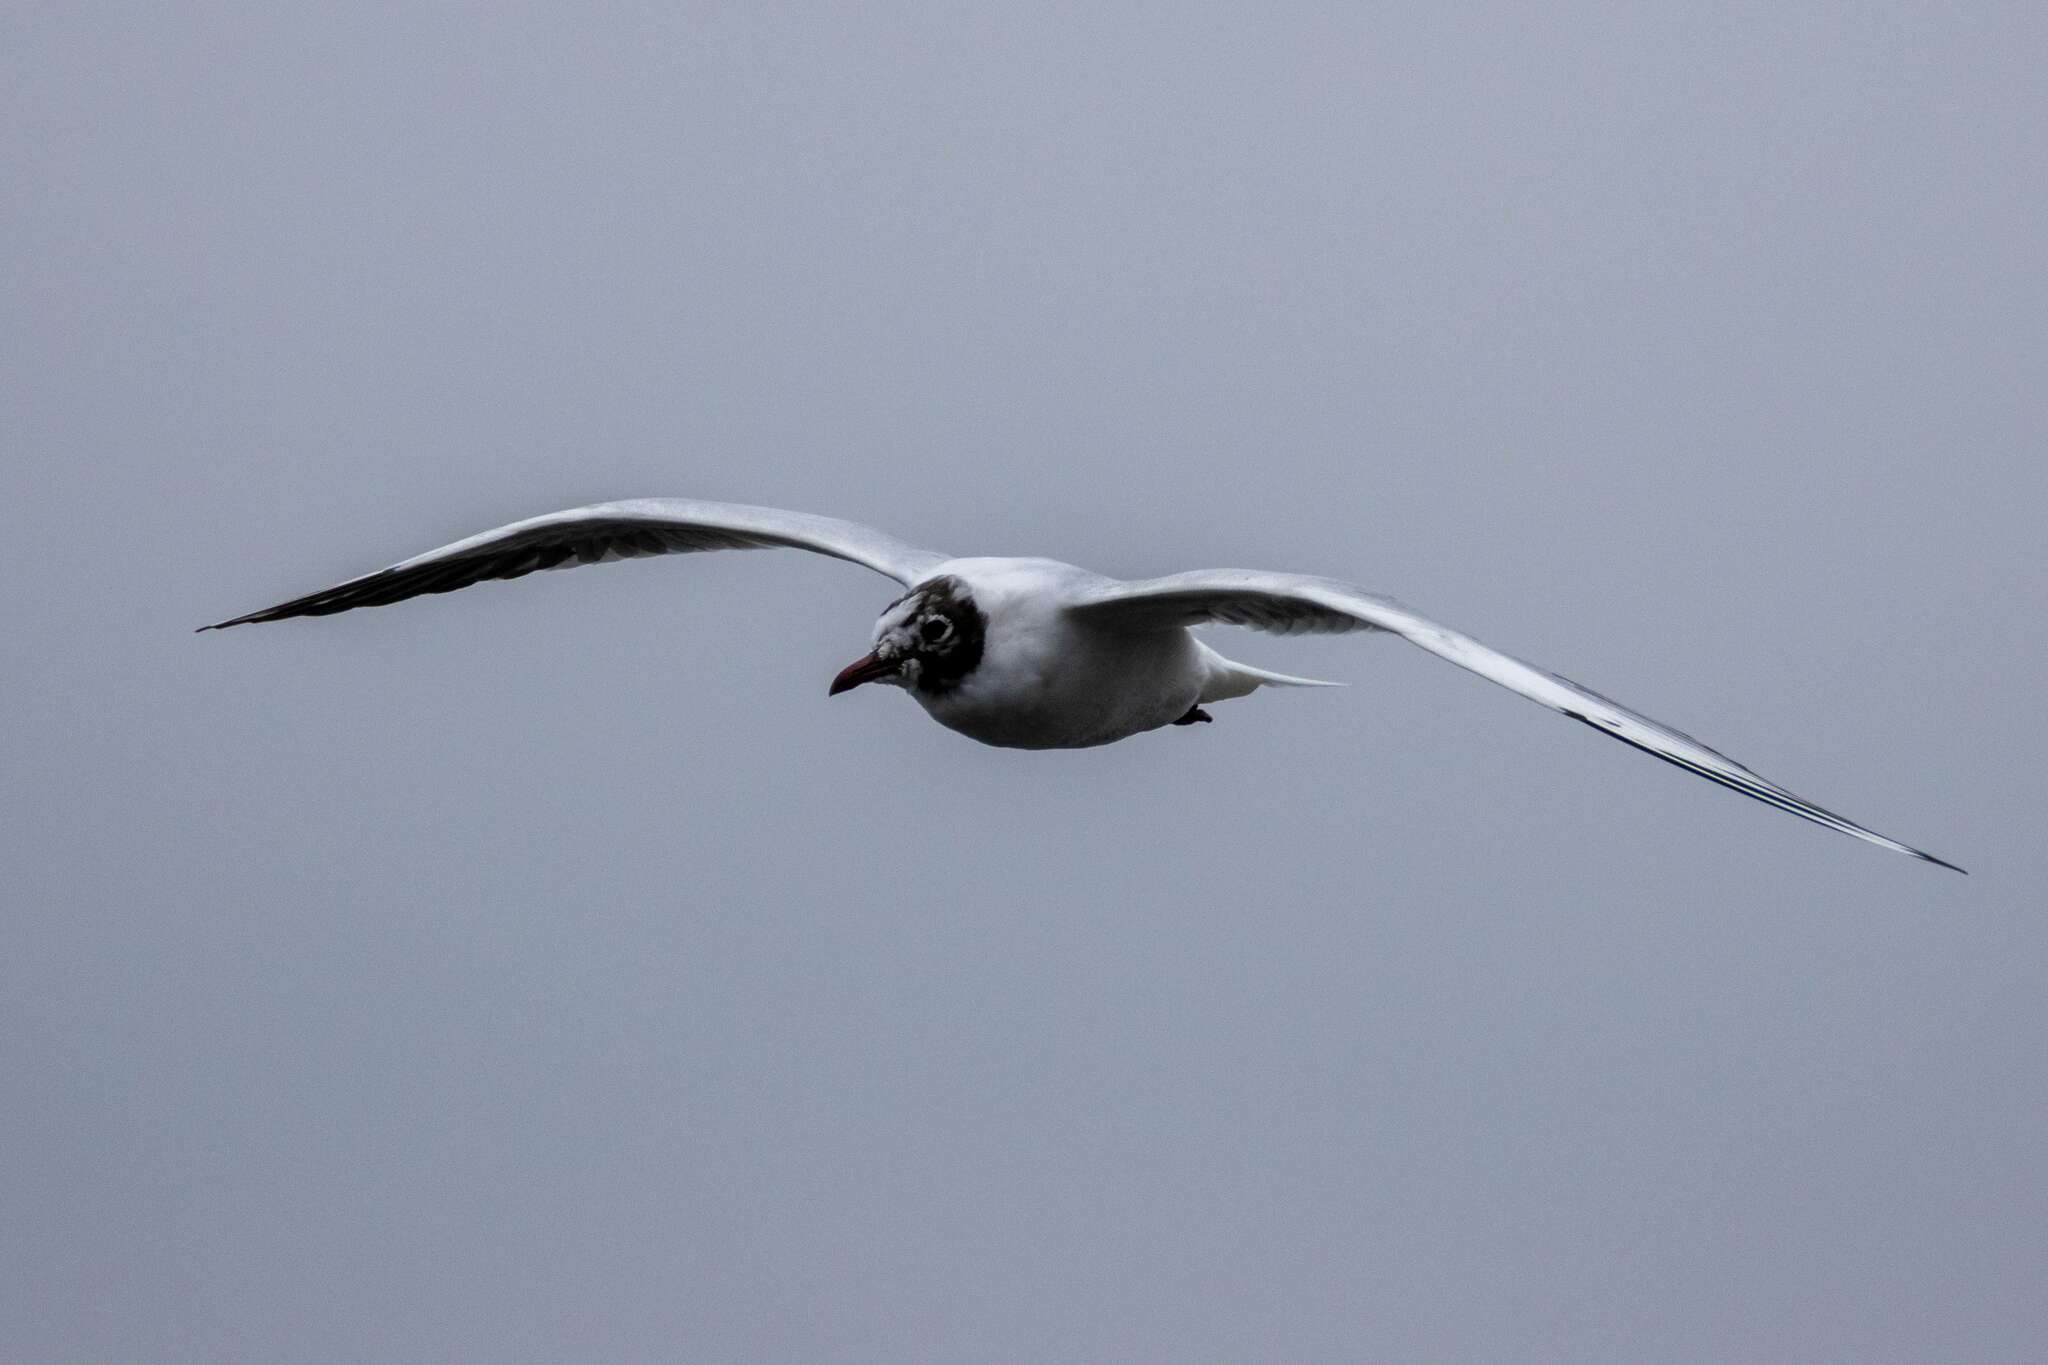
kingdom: Animalia
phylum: Chordata
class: Aves
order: Charadriiformes
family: Laridae
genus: Chroicocephalus
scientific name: Chroicocephalus ridibundus
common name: Black-headed gull
